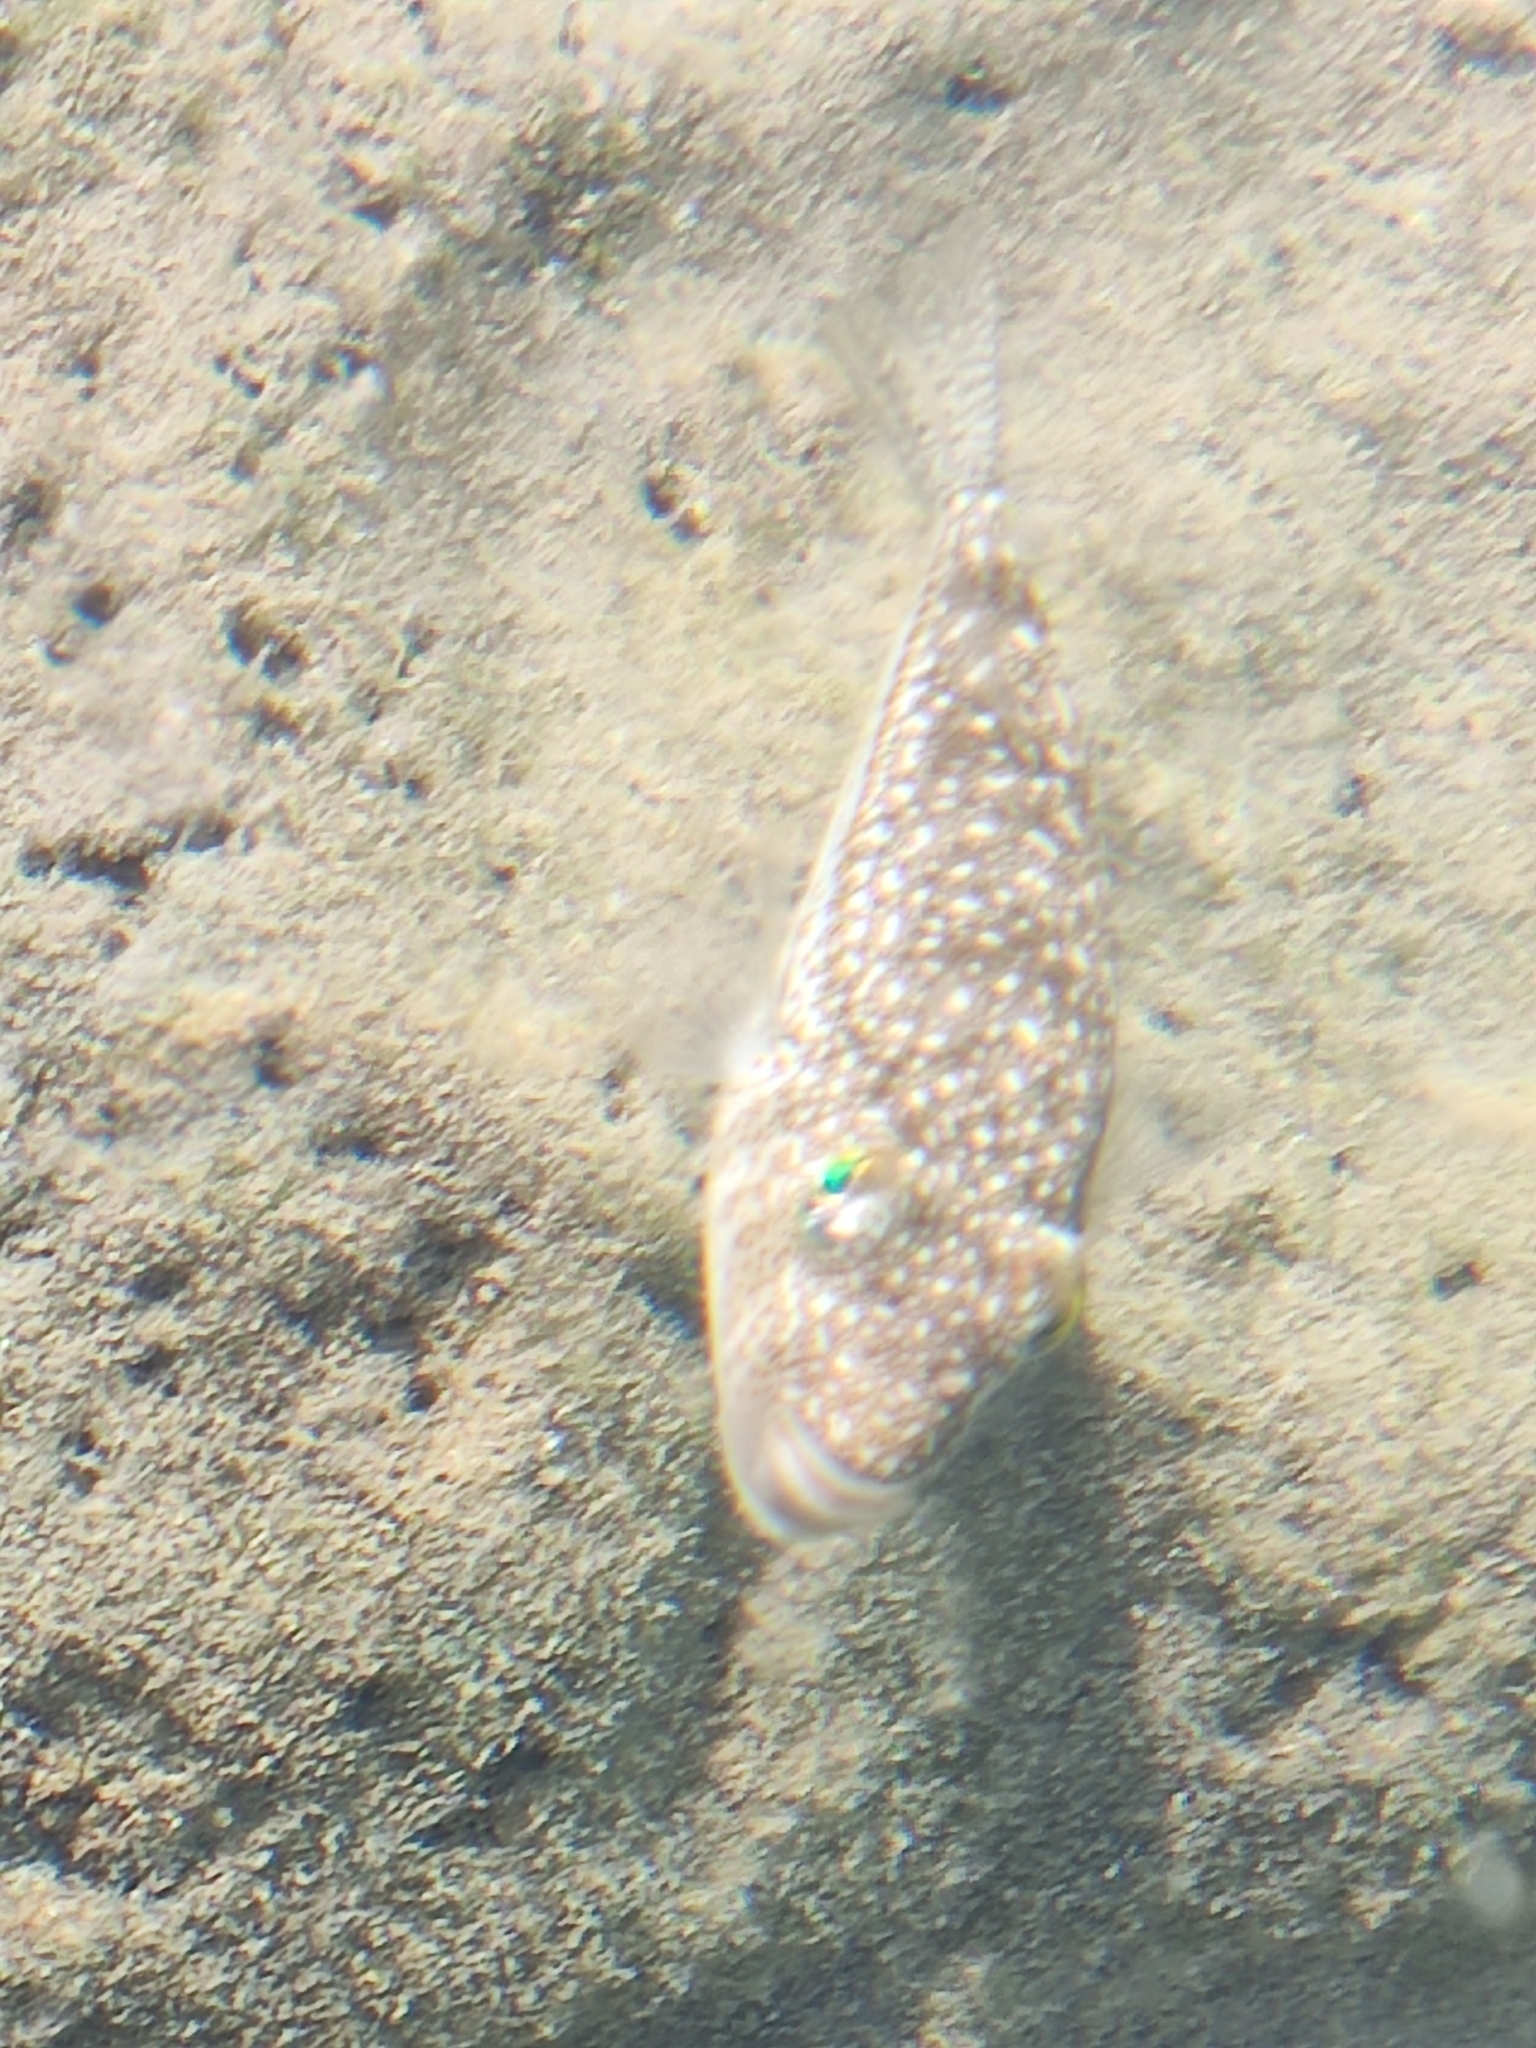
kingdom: Animalia
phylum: Chordata
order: Tetraodontiformes
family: Tetraodontidae
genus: Torquigener
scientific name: Torquigener flavimaculosus
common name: Studded pufferfish
